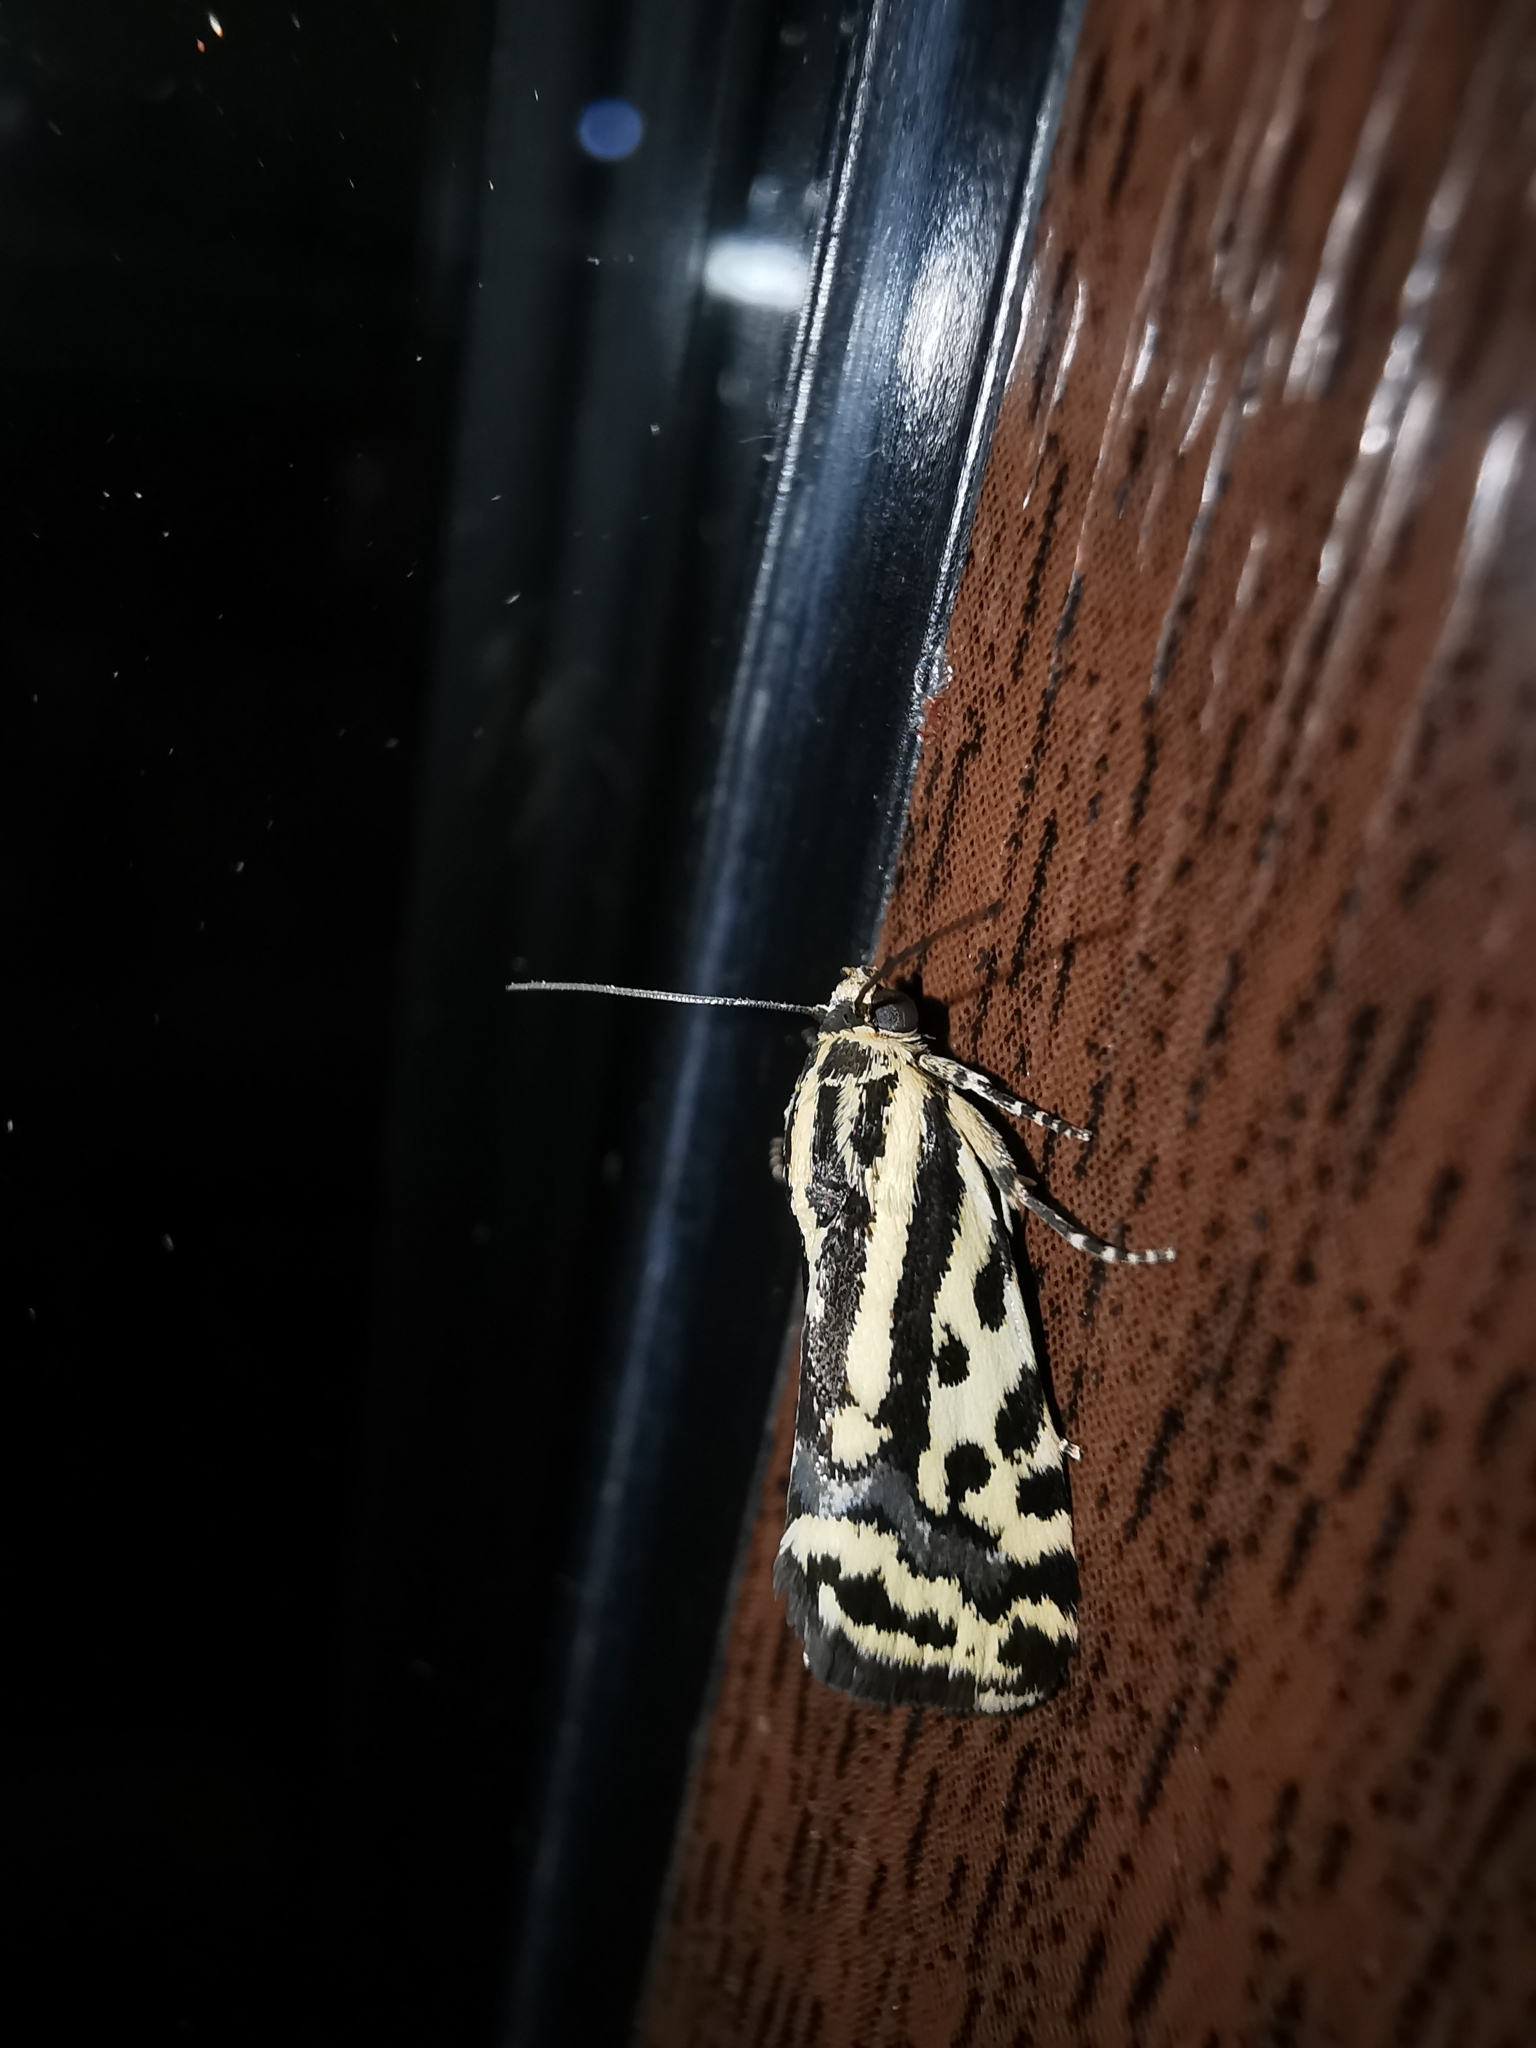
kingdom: Animalia
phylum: Arthropoda
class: Insecta
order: Lepidoptera
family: Noctuidae
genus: Acontia
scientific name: Acontia trabealis
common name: Spotted sulphur
